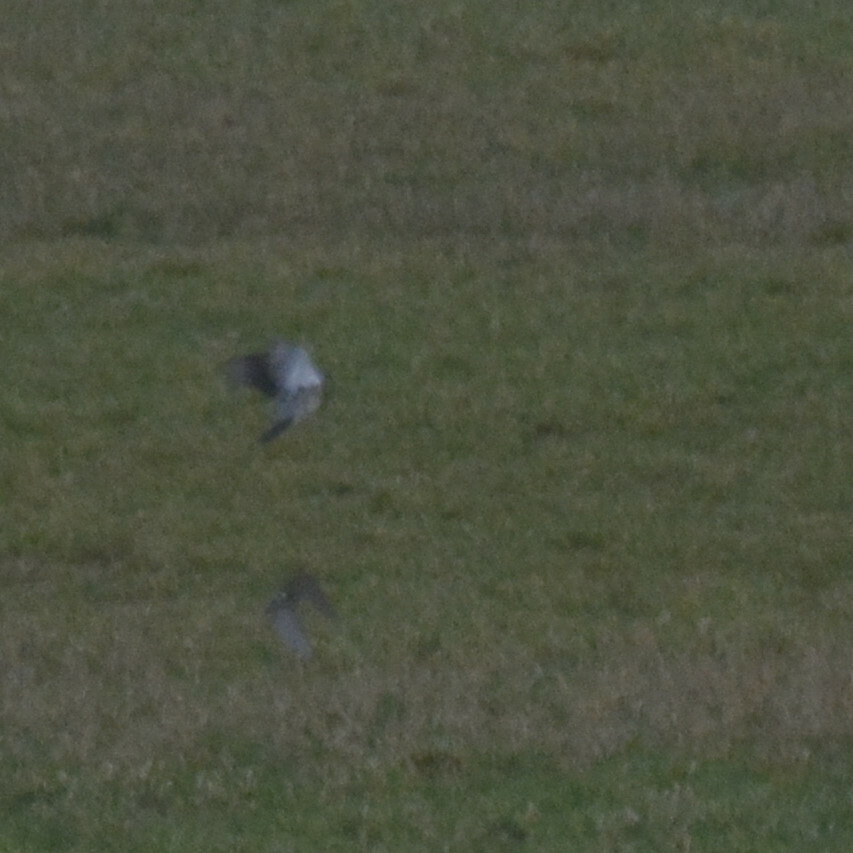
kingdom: Animalia
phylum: Chordata
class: Aves
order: Passeriformes
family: Turdidae
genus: Turdus
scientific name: Turdus pilaris
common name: Fieldfare
